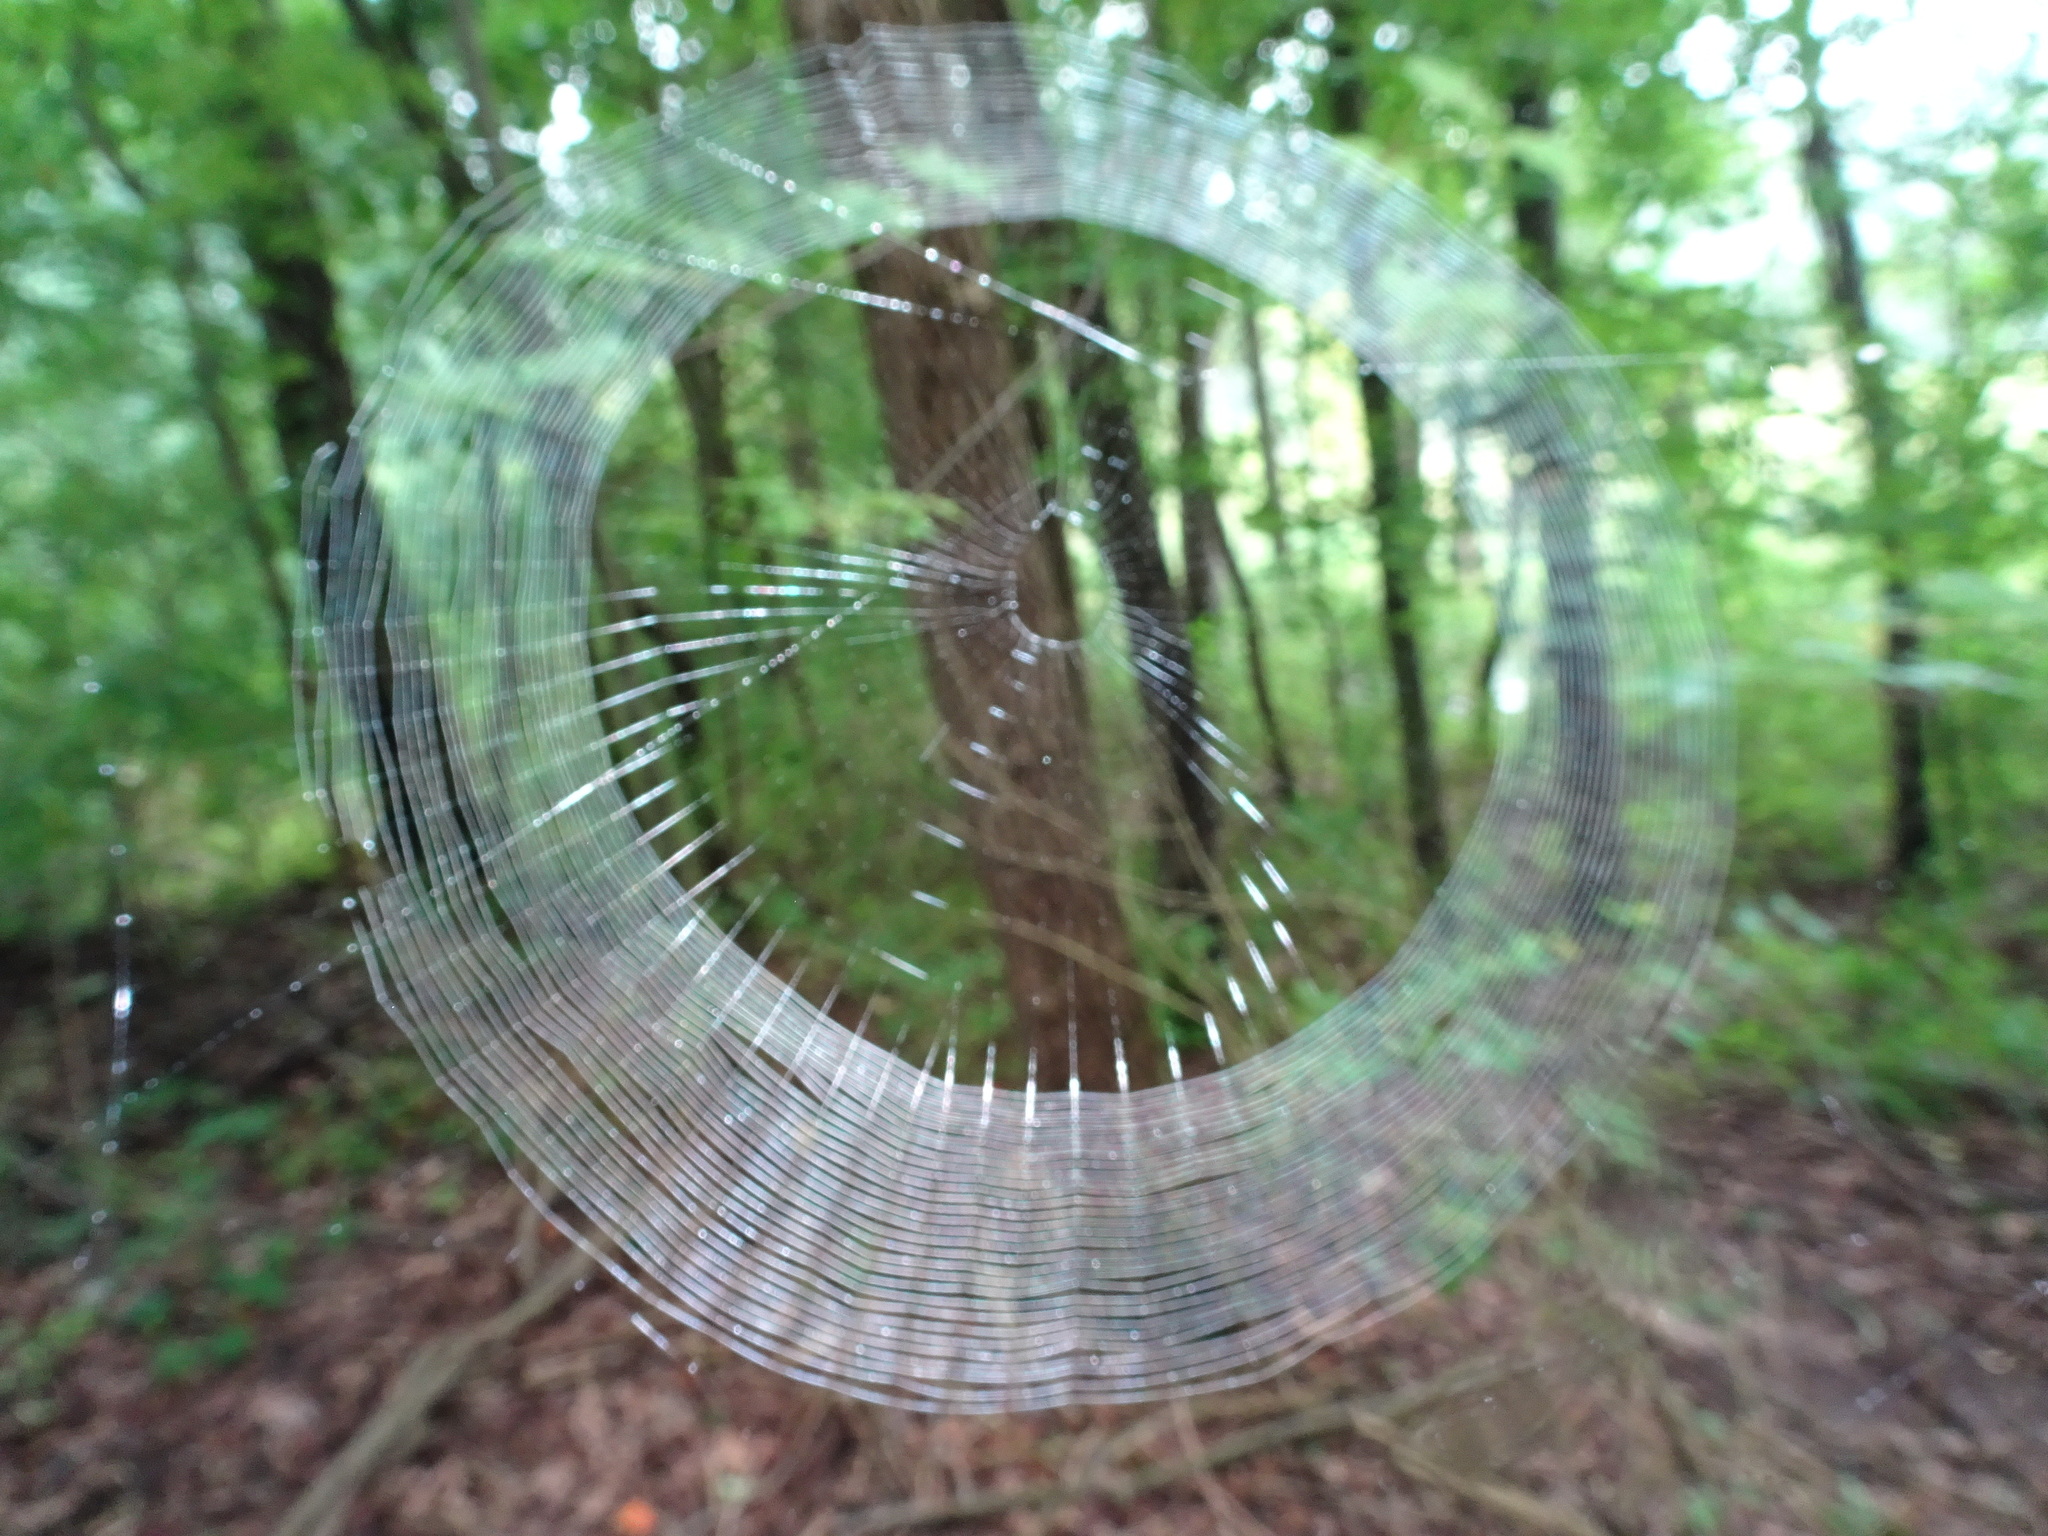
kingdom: Animalia
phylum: Arthropoda
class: Arachnida
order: Araneae
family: Araneidae
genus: Micrathena
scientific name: Micrathena gracilis
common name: Orb weavers
